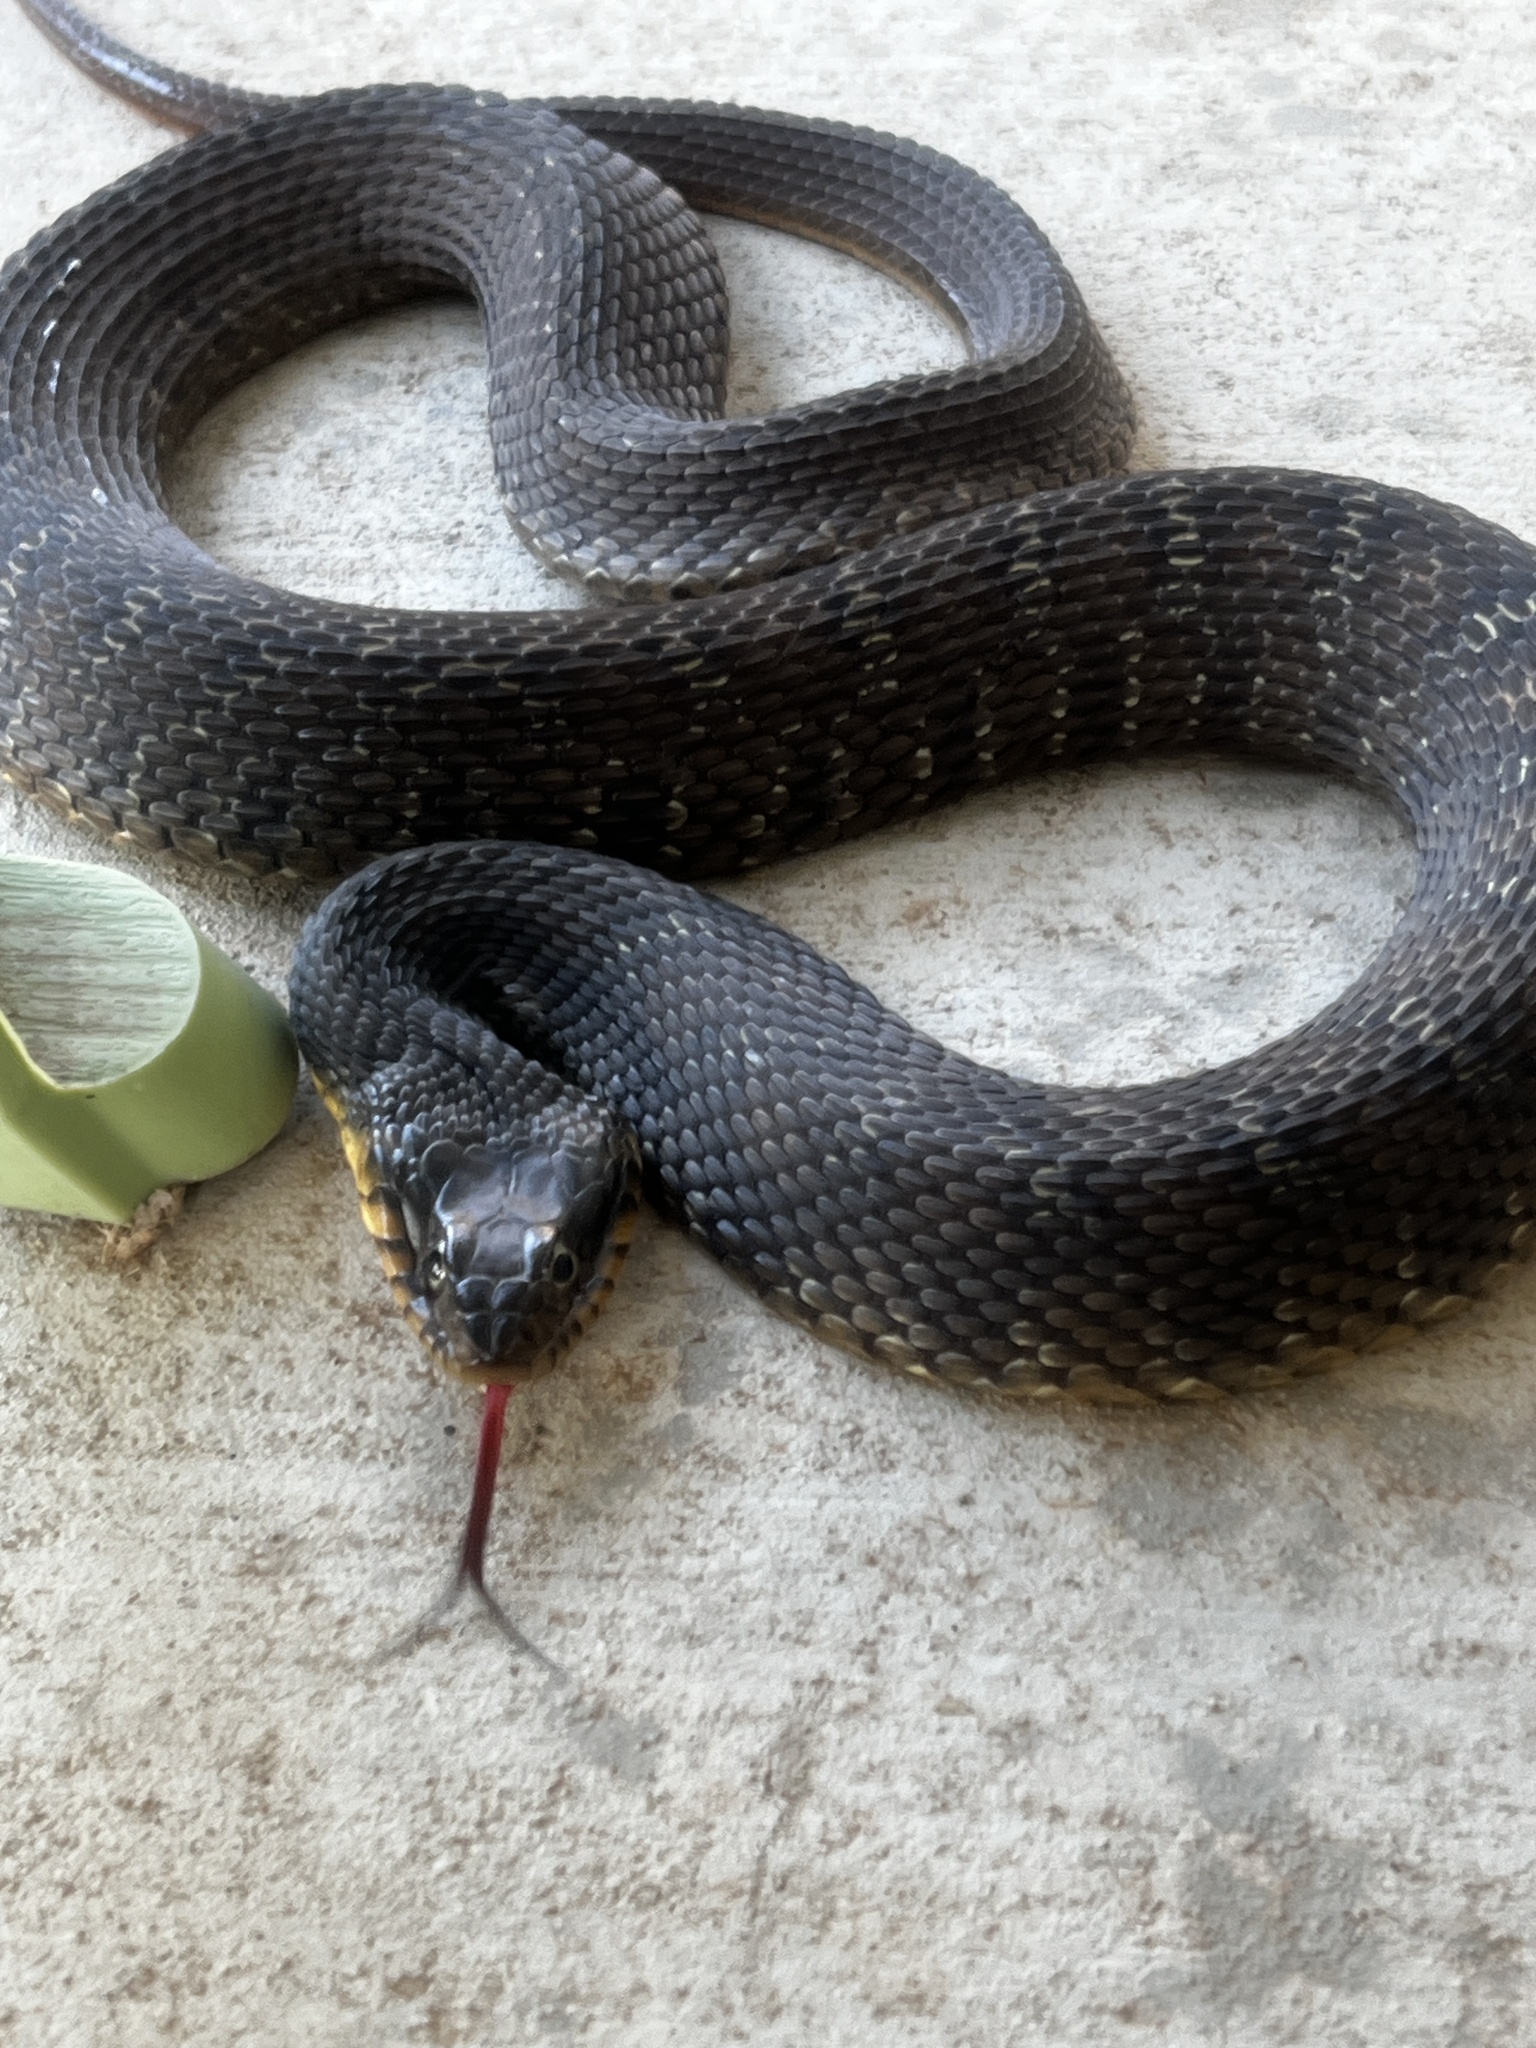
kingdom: Animalia
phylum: Chordata
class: Squamata
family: Colubridae
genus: Nerodia
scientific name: Nerodia erythrogaster
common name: Plainbelly water snake
